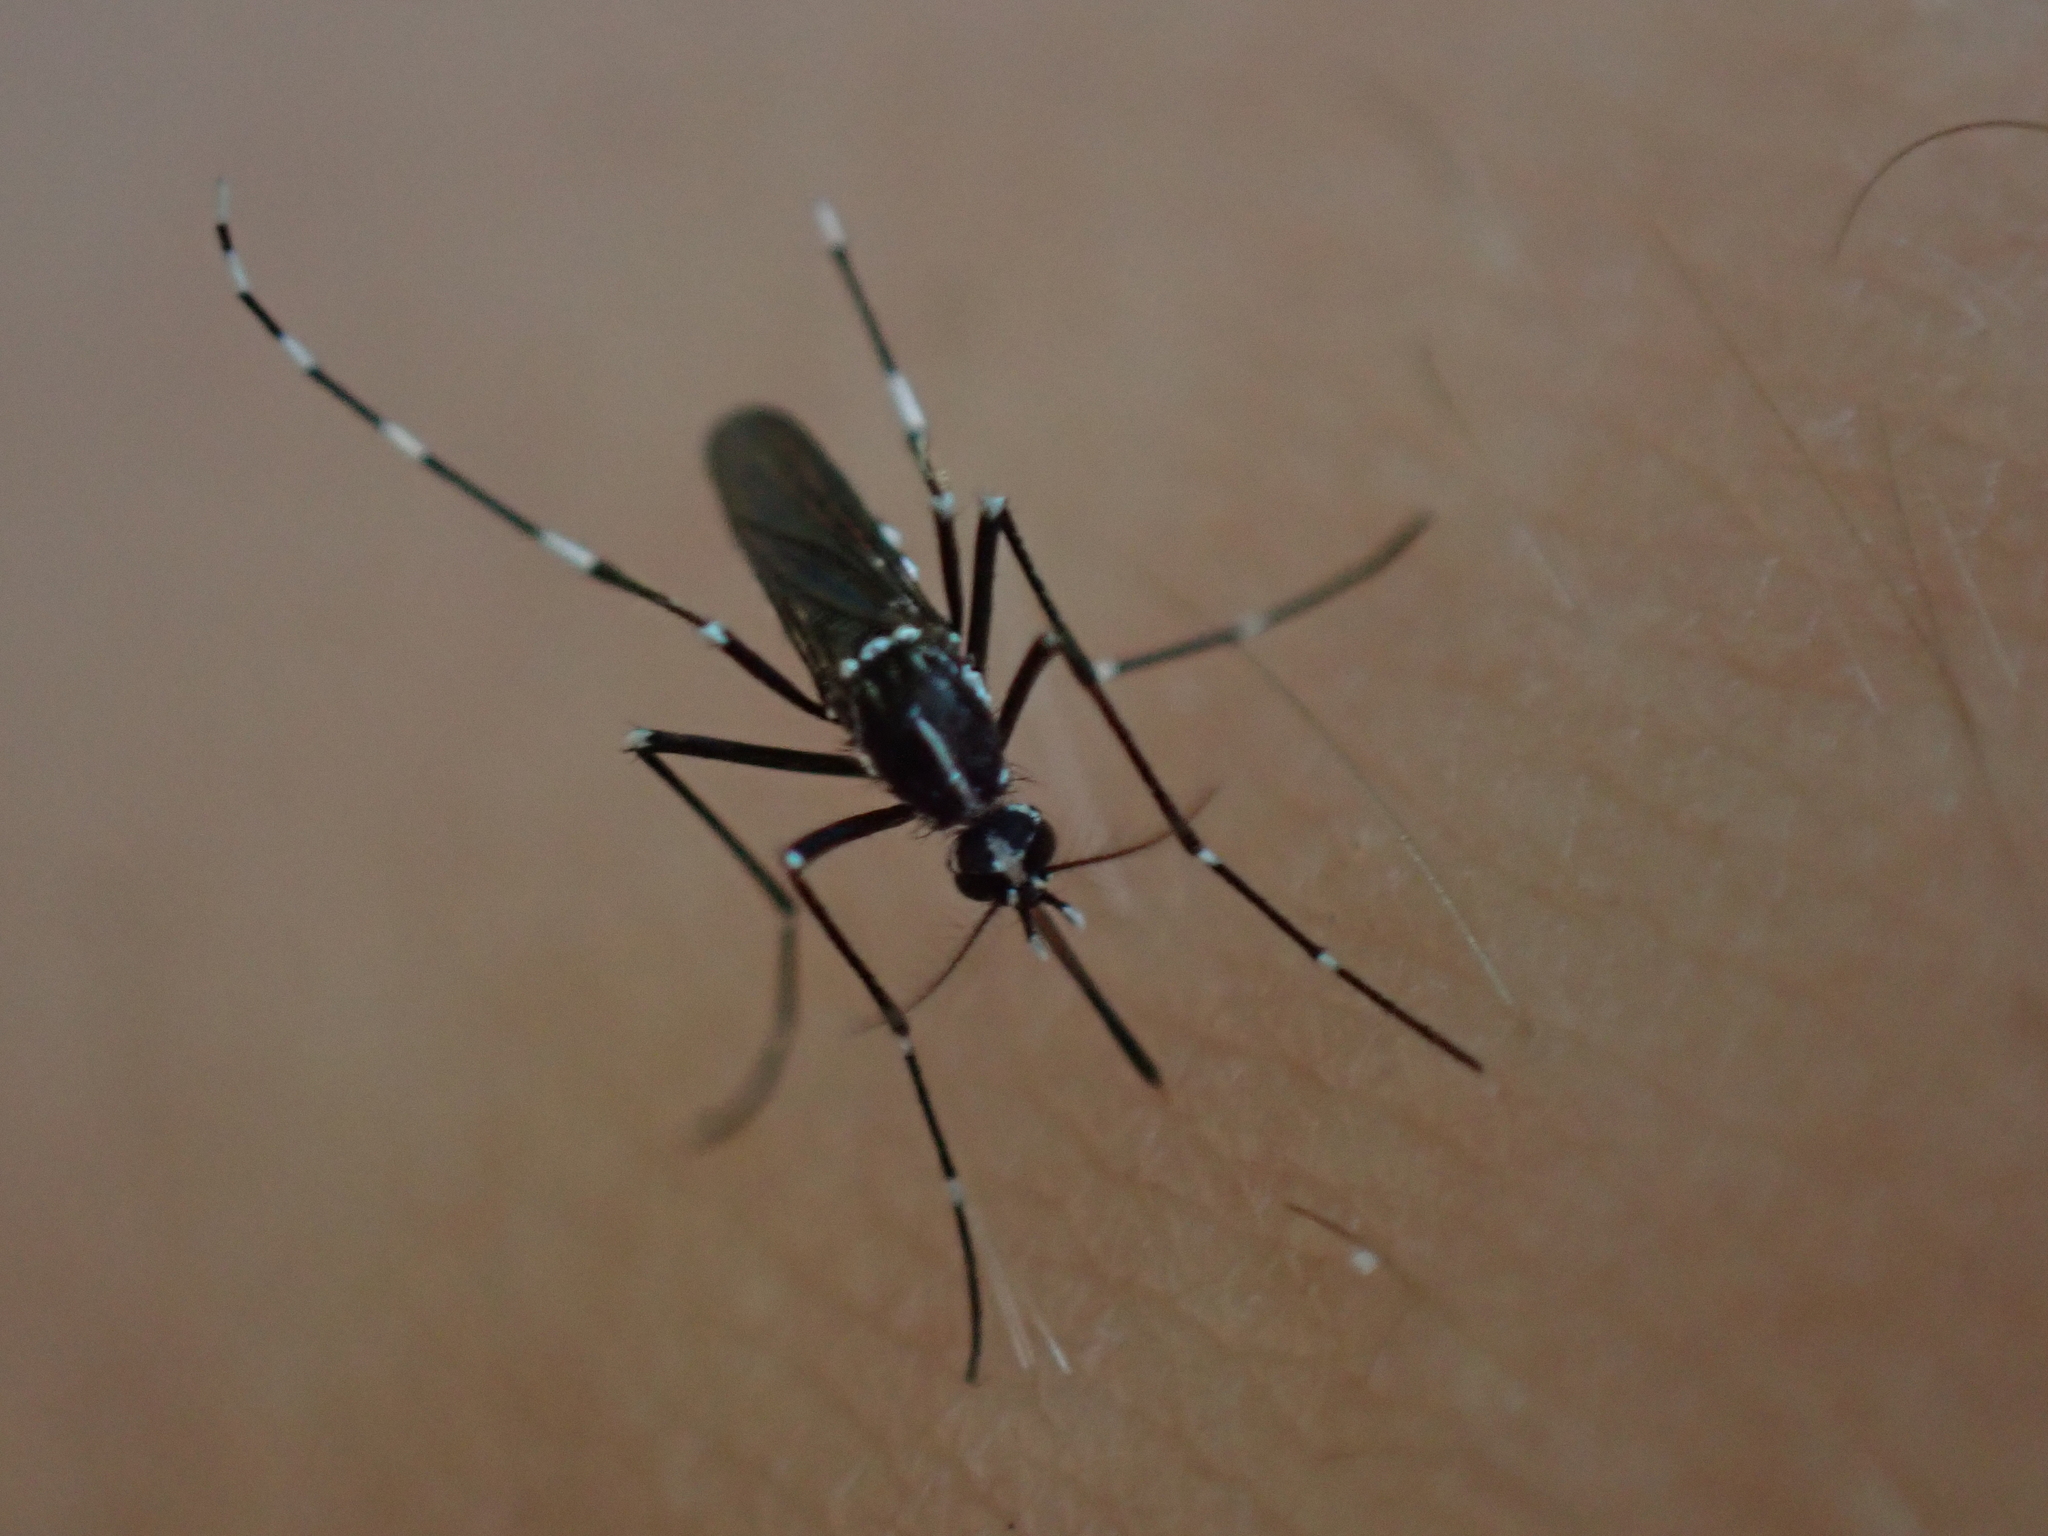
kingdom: Animalia
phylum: Arthropoda
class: Insecta
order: Diptera
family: Culicidae
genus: Aedes
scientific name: Aedes albopictus
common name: Tiger mosquito
